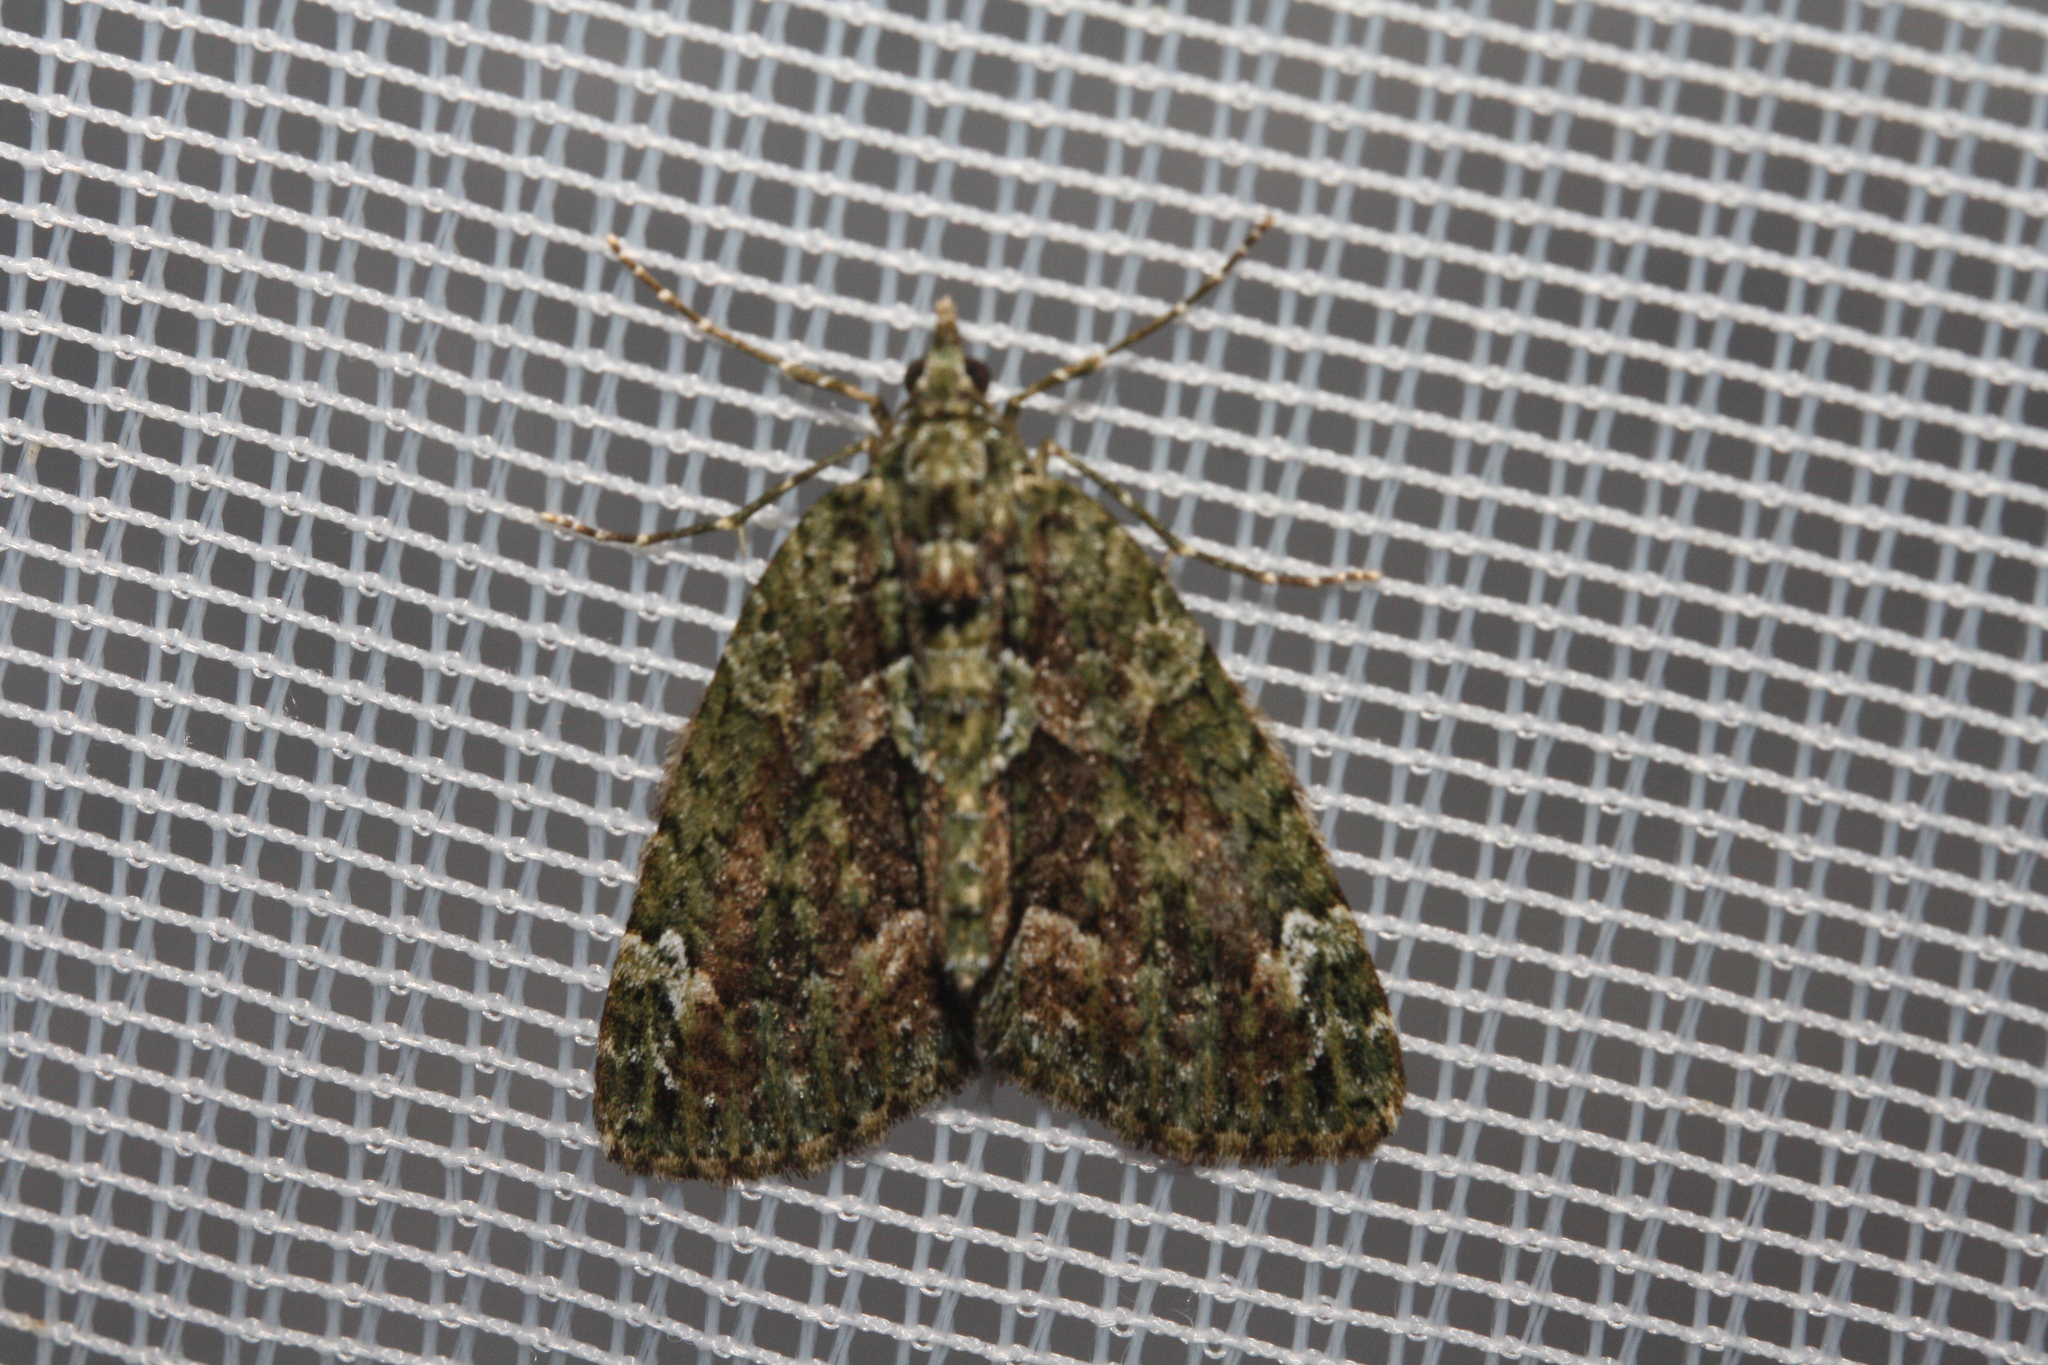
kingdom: Animalia
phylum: Arthropoda
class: Insecta
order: Lepidoptera
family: Geometridae
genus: Chloroclysta
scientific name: Chloroclysta siterata
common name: Red-green carpet
